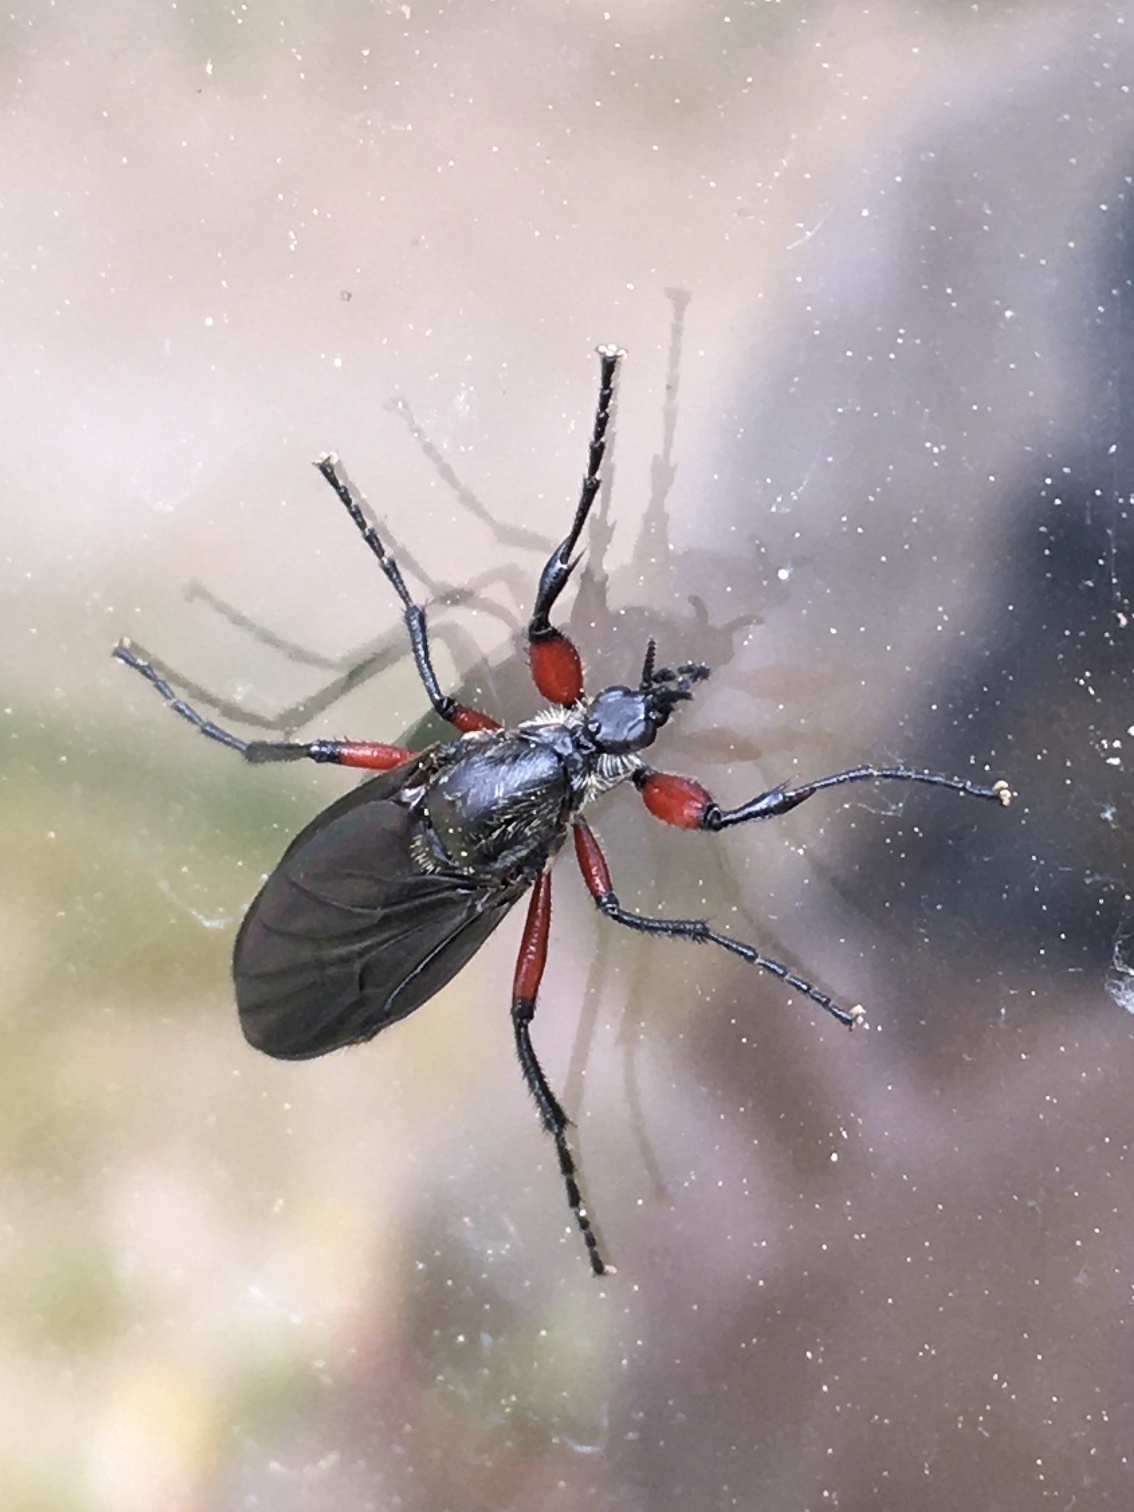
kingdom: Animalia
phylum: Arthropoda
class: Insecta
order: Diptera
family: Bibionidae
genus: Bibio
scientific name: Bibio femoratus
